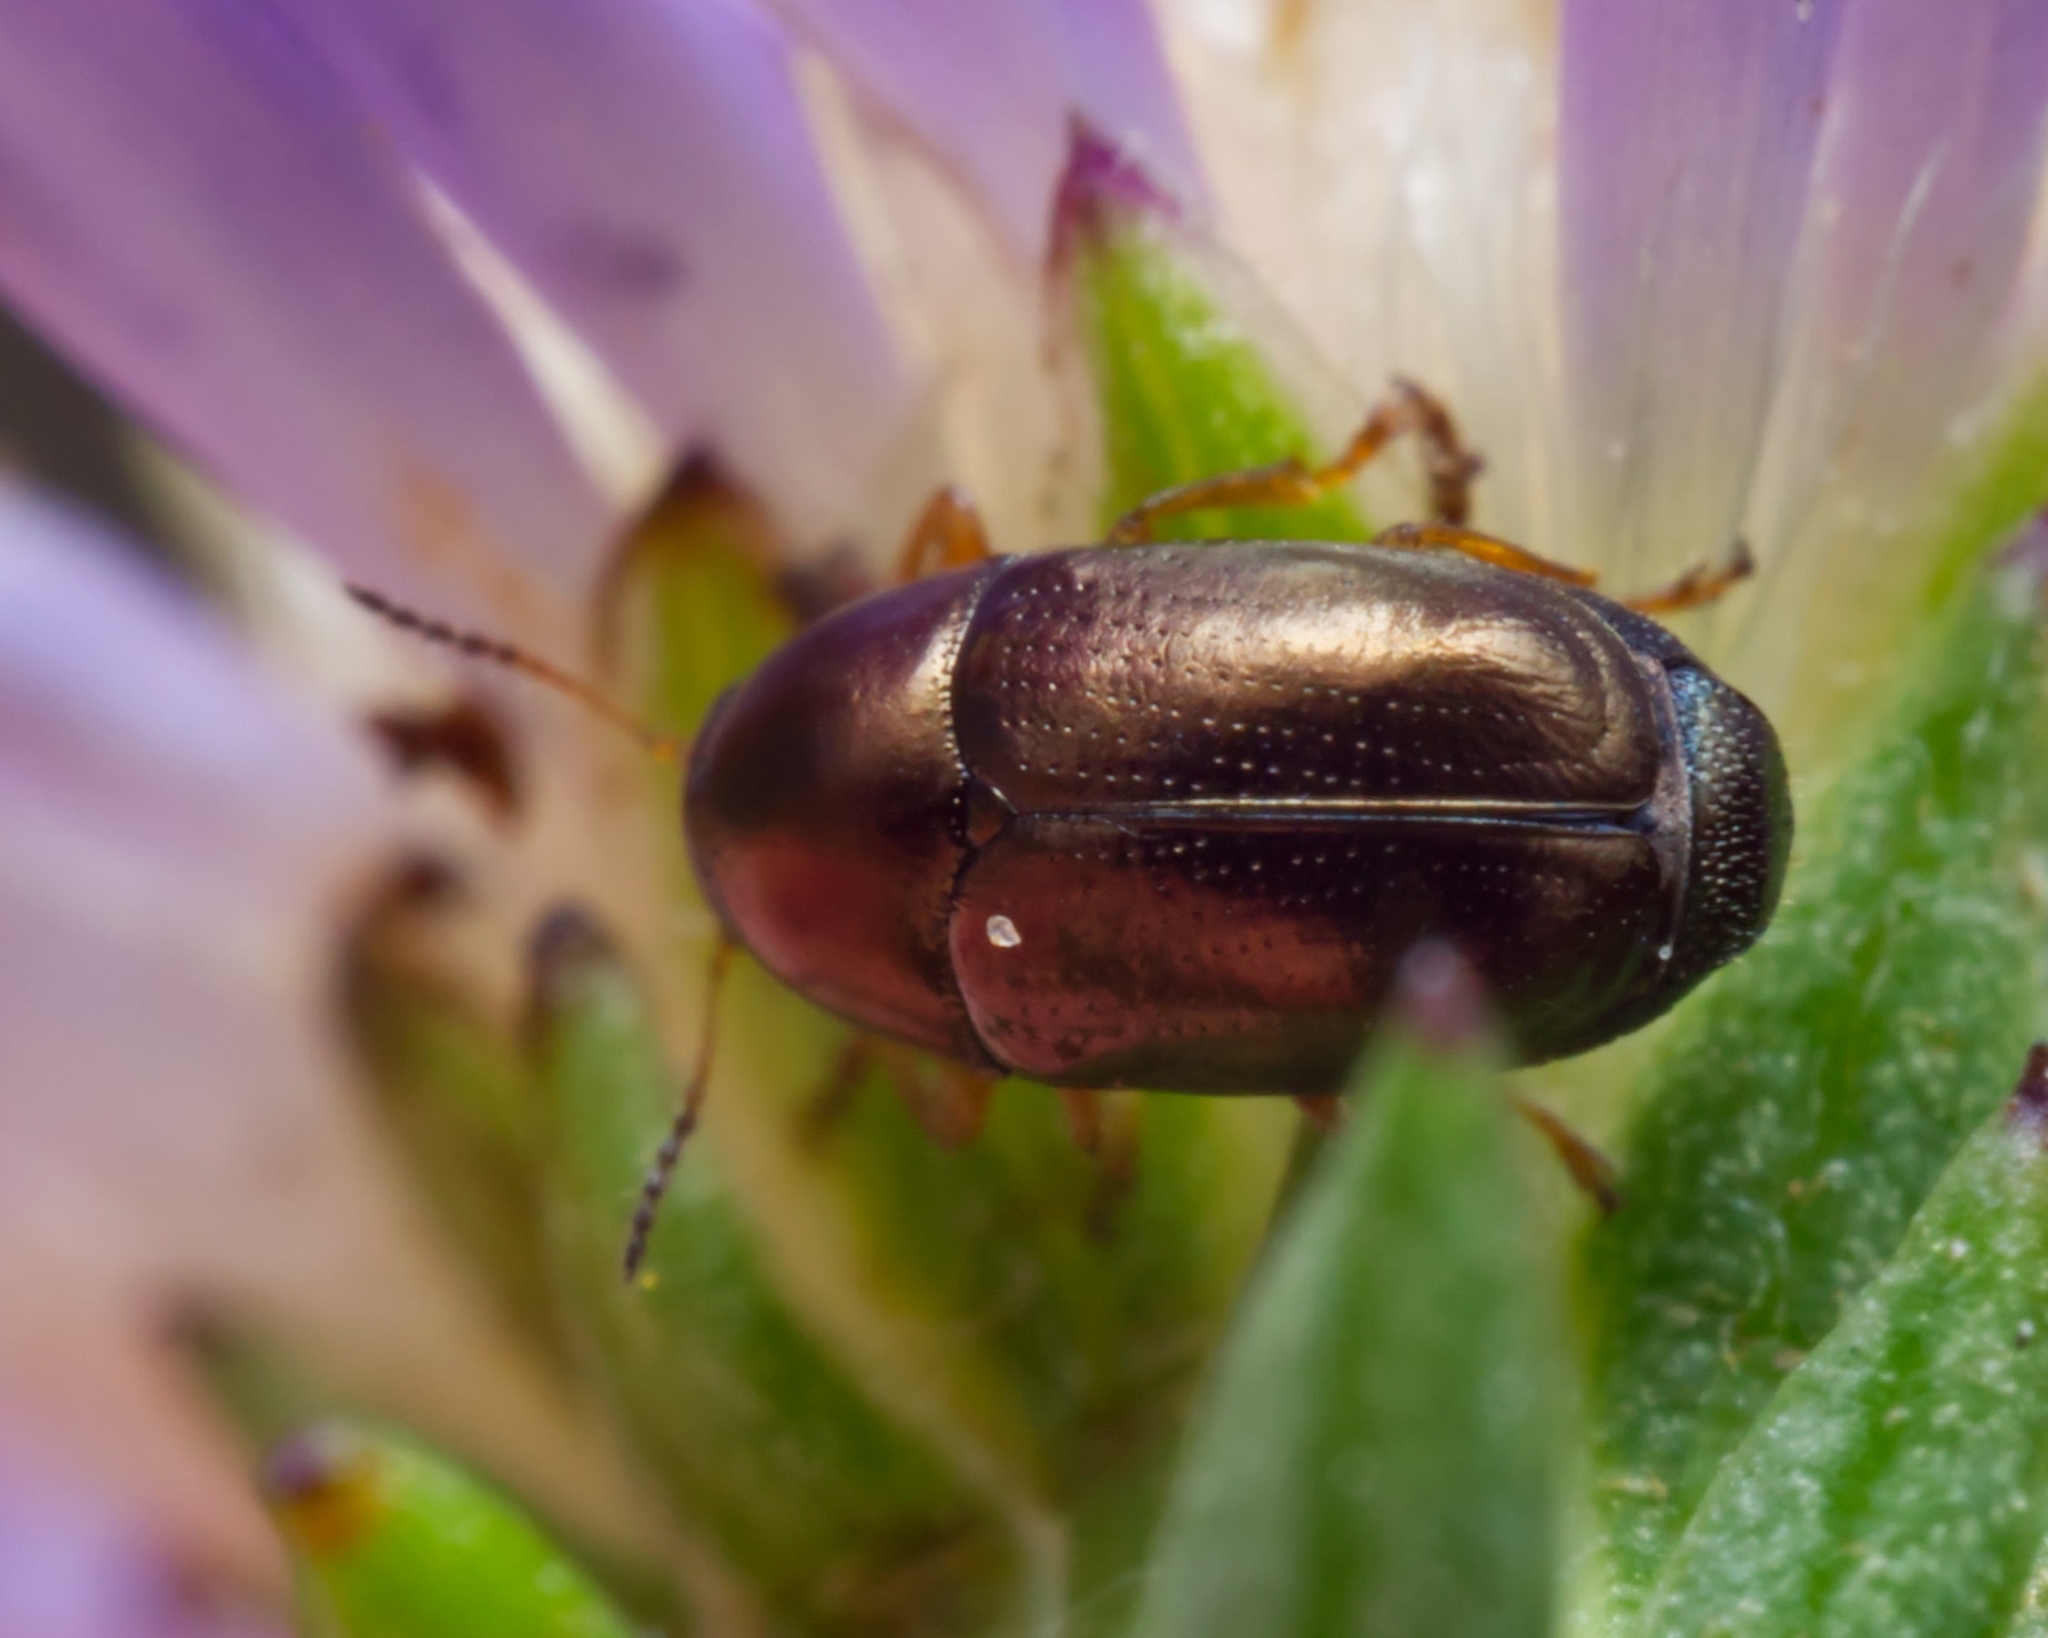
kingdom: Animalia
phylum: Arthropoda
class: Insecta
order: Coleoptera
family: Chrysomelidae
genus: Diachus
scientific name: Diachus auratus
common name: Bronze leaf beetle
